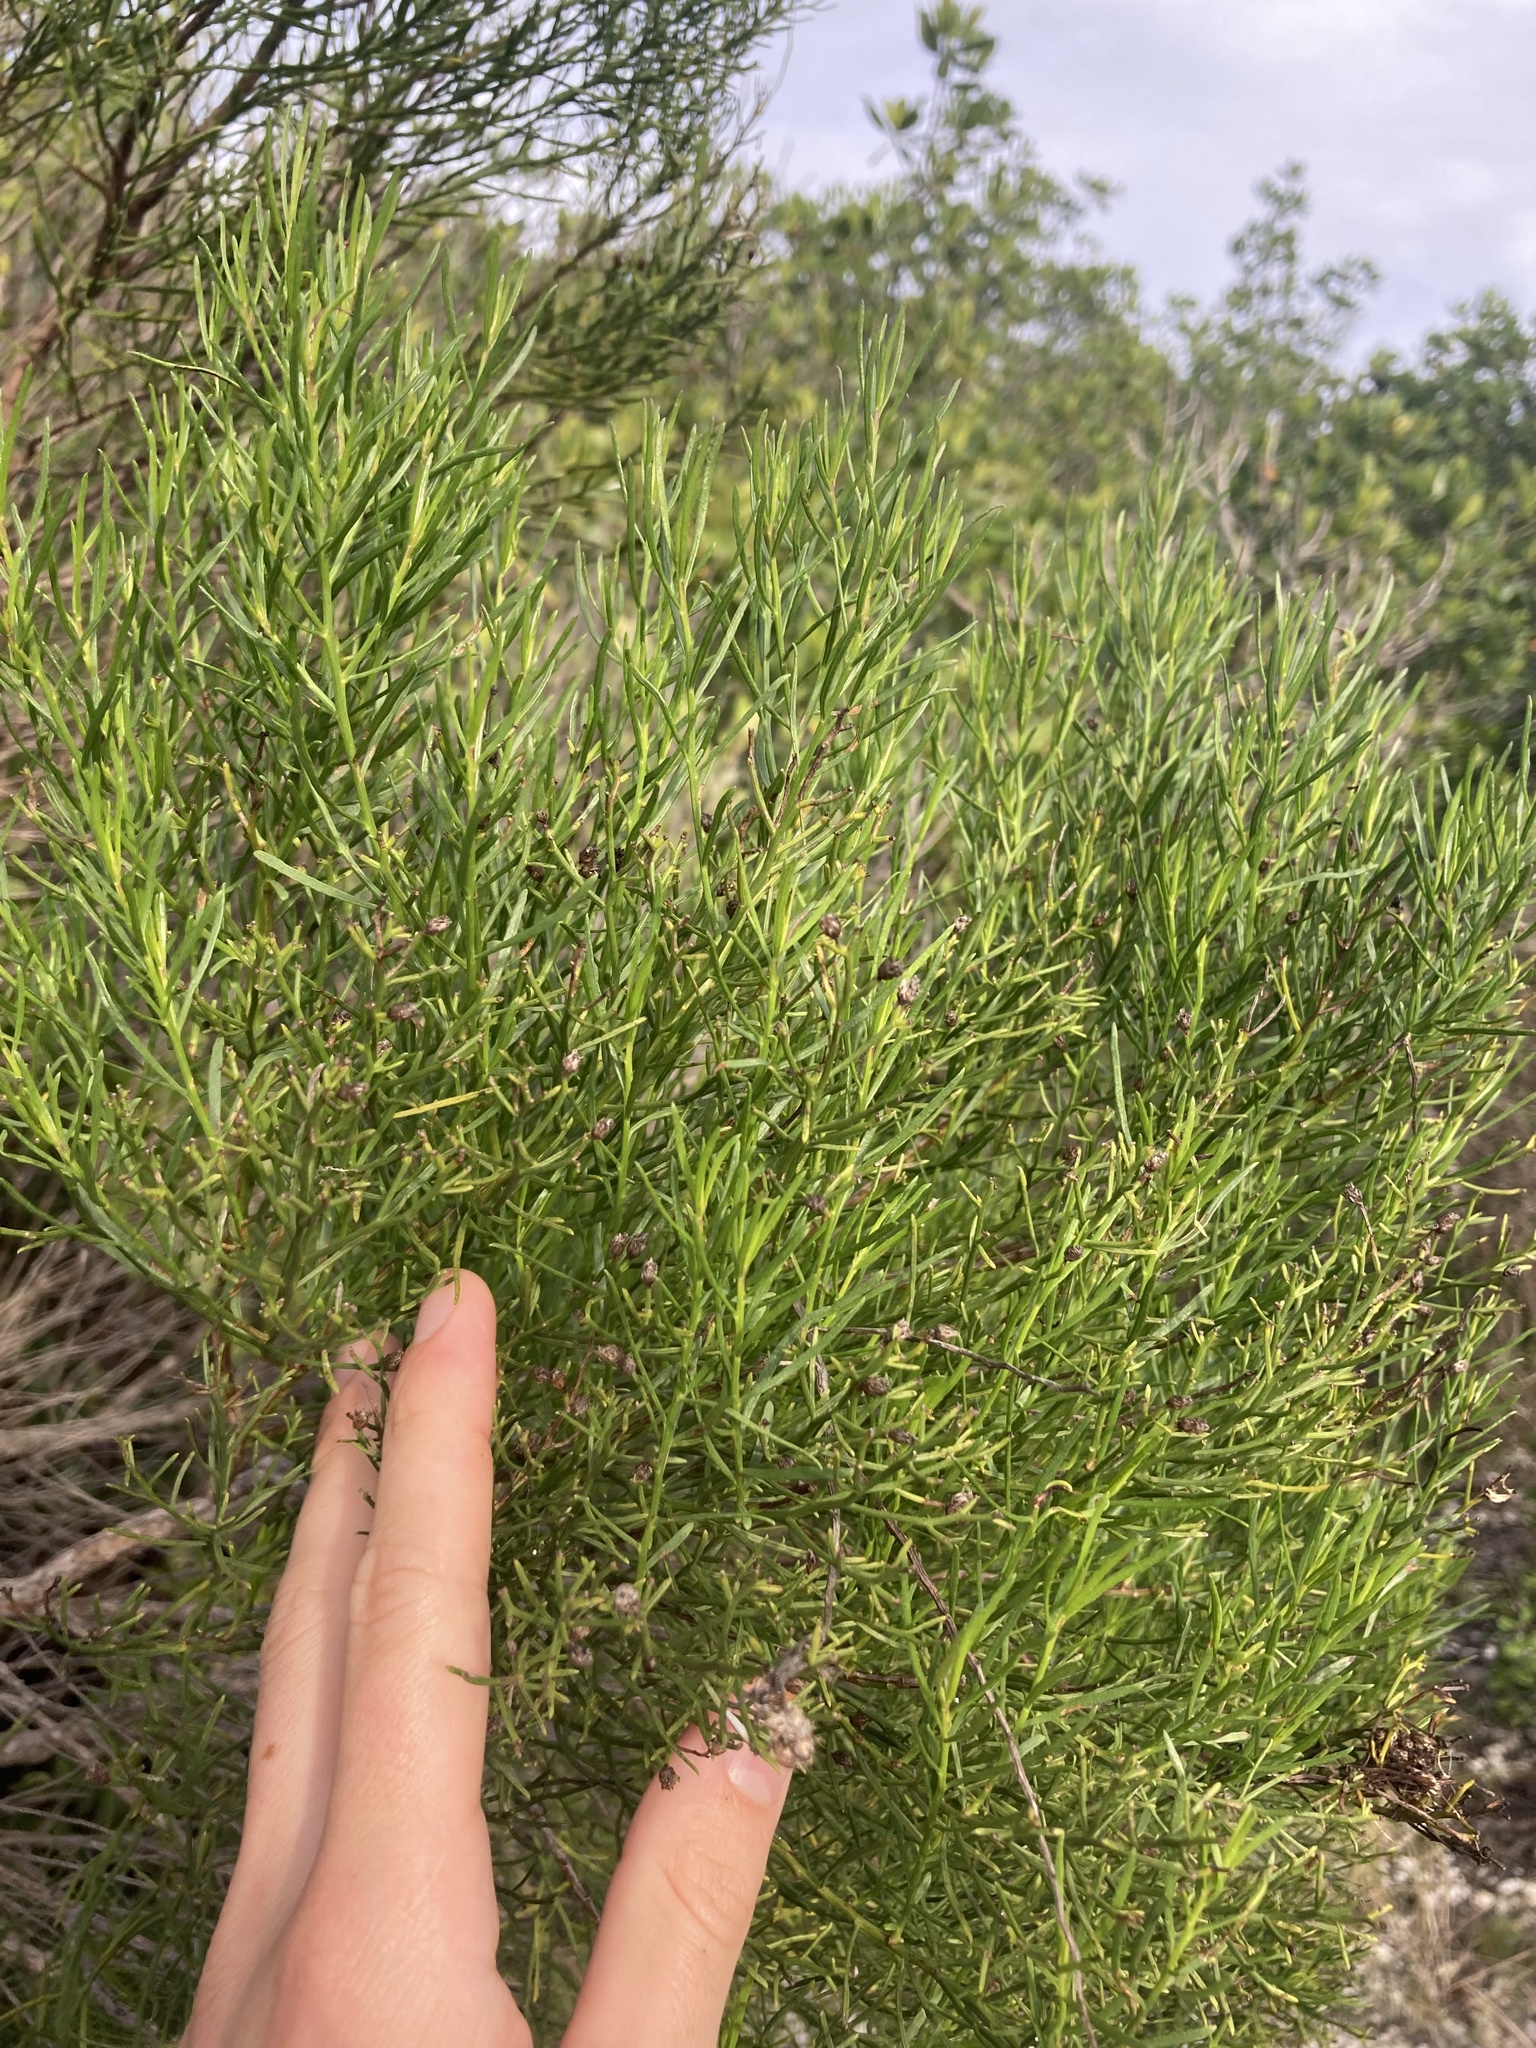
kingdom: Plantae
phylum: Tracheophyta
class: Magnoliopsida
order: Asterales
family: Asteraceae
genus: Baccharis
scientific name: Baccharis angustifolia
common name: Narrow-leaf baccharis
